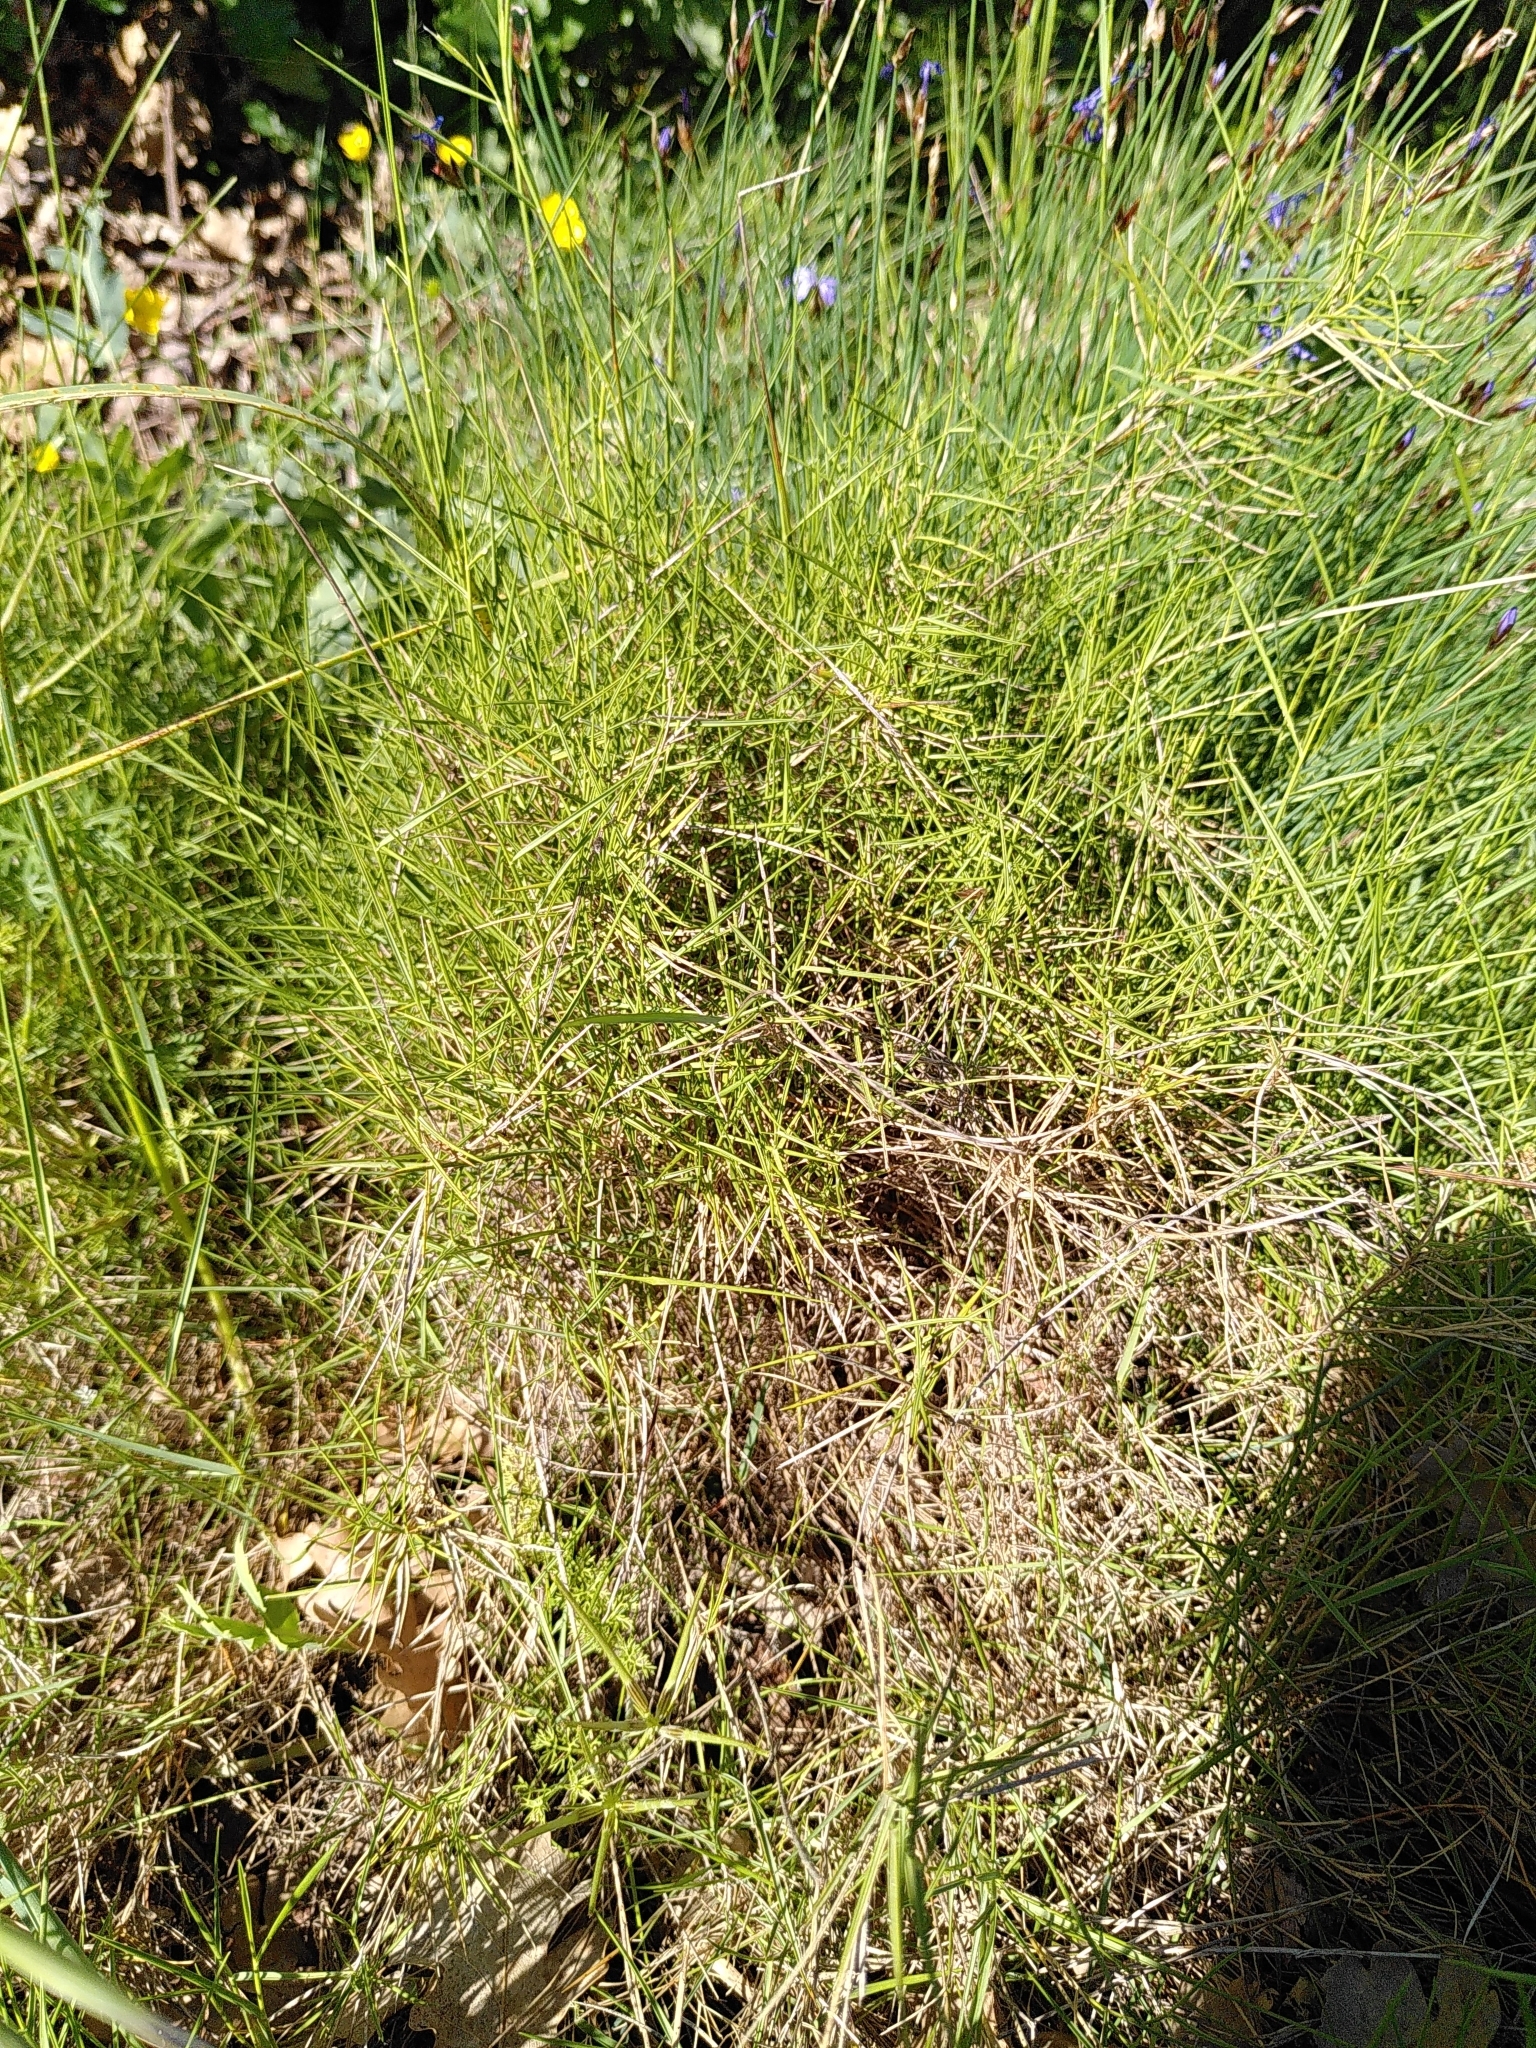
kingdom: Plantae
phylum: Tracheophyta
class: Liliopsida
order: Poales
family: Poaceae
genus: Brachypodium
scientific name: Brachypodium retusum
